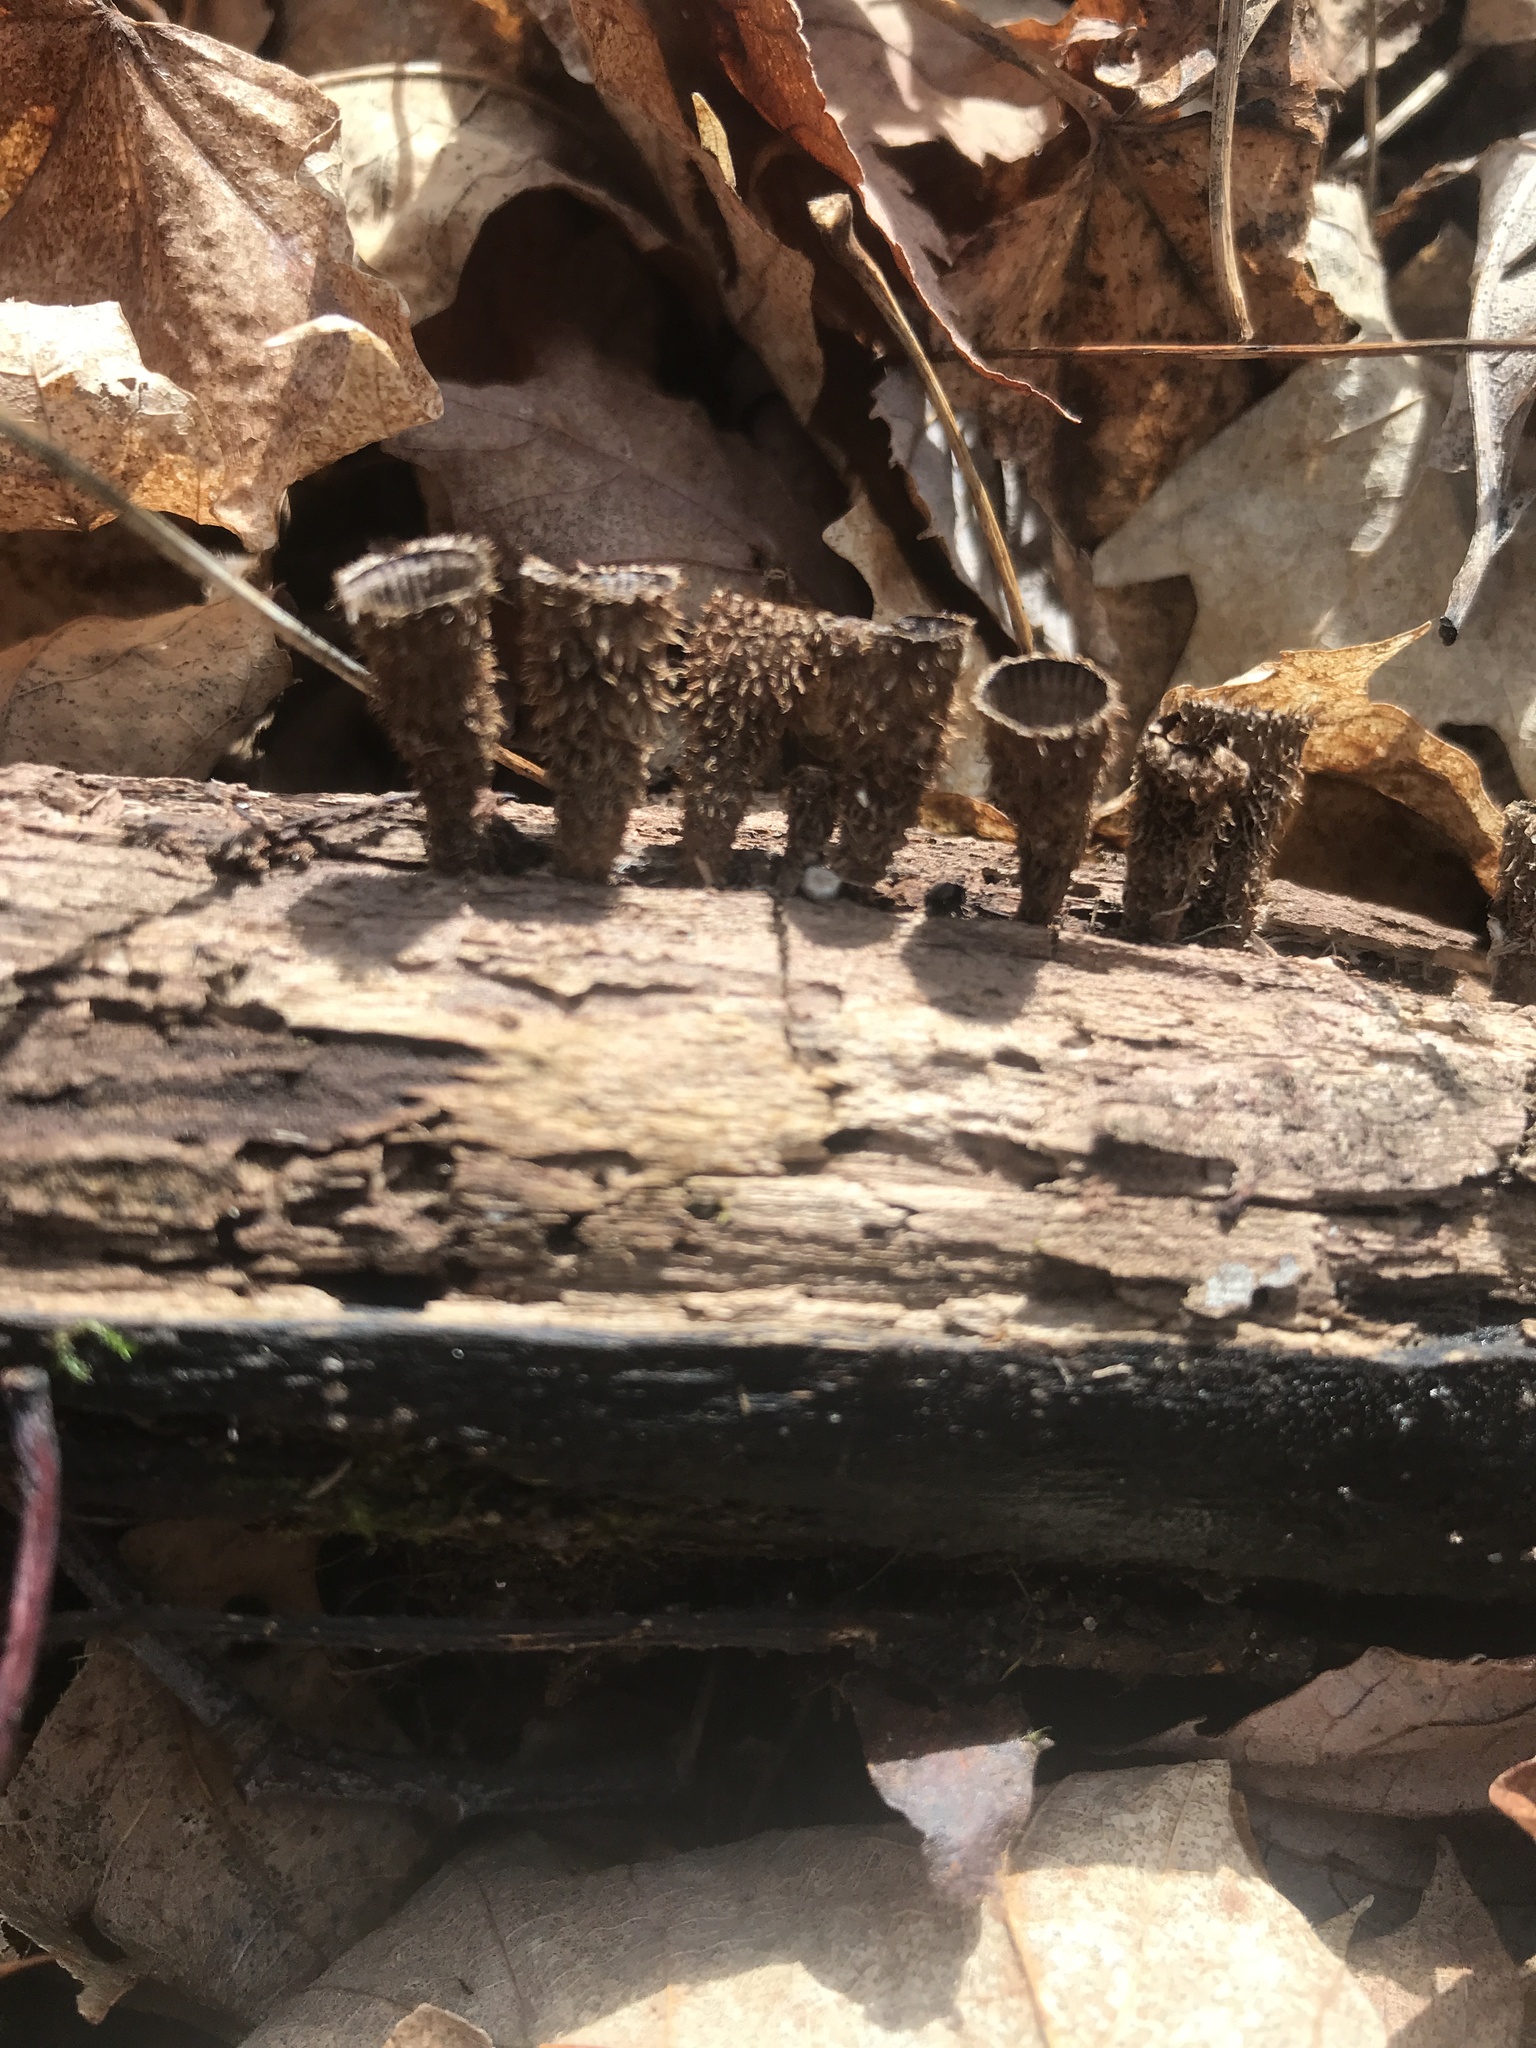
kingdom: Fungi
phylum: Basidiomycota
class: Agaricomycetes
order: Agaricales
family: Agaricaceae
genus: Cyathus
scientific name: Cyathus striatus
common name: Fluted bird's nest
